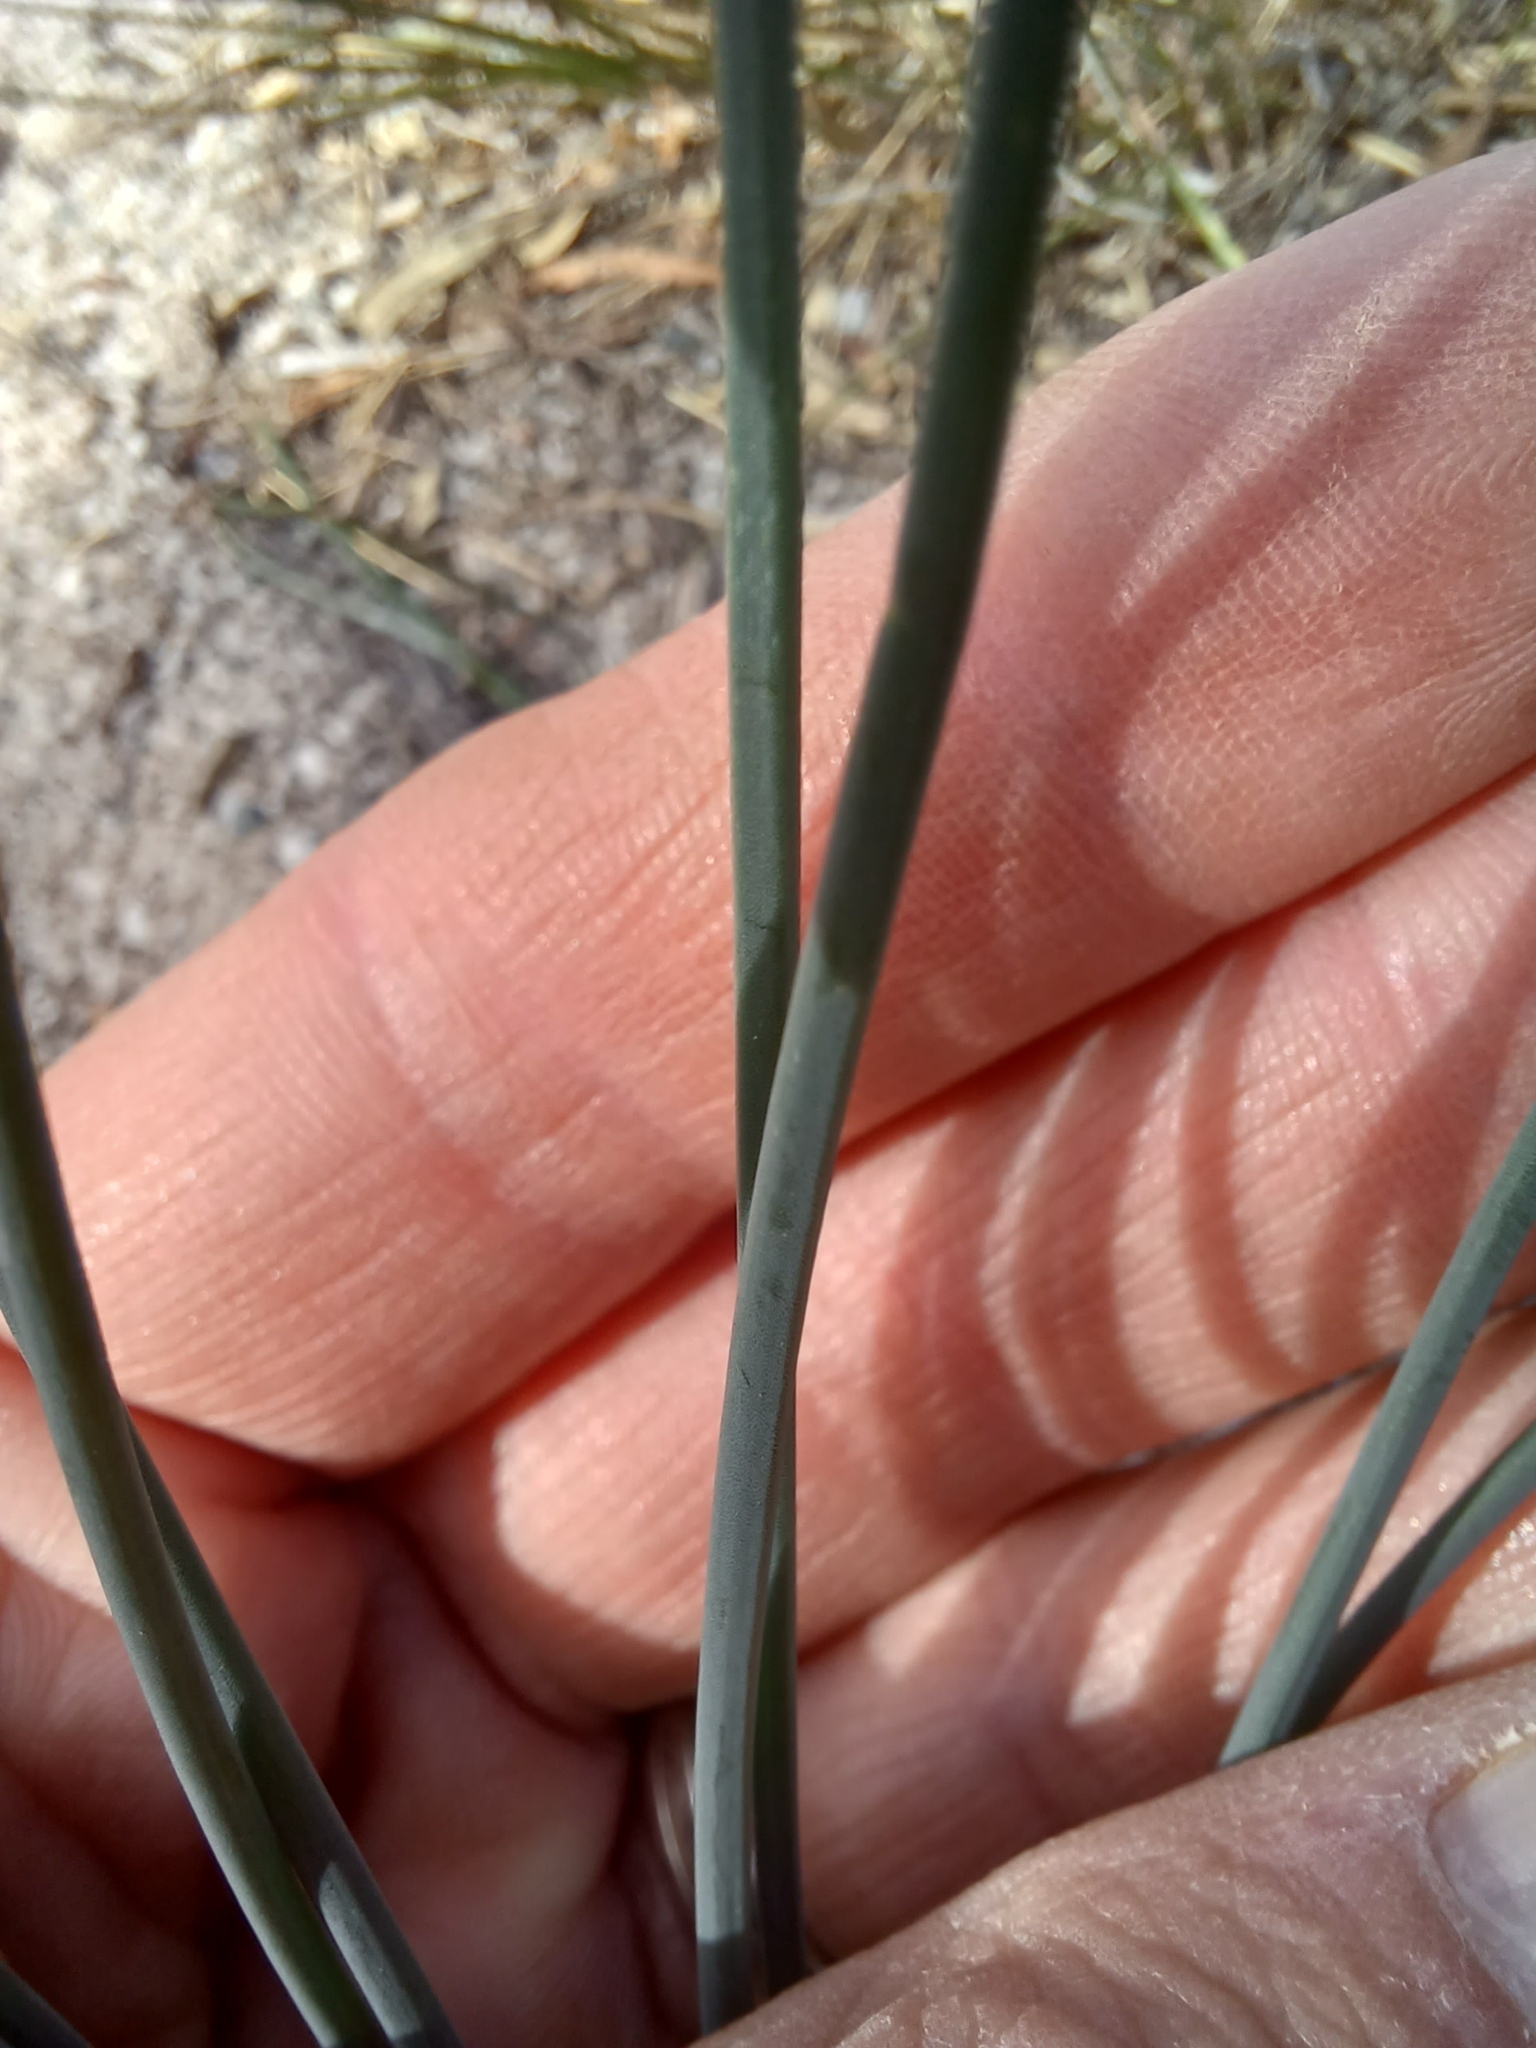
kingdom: Plantae
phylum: Tracheophyta
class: Liliopsida
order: Asparagales
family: Asparagaceae
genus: Drimia
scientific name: Drimia exuviata
